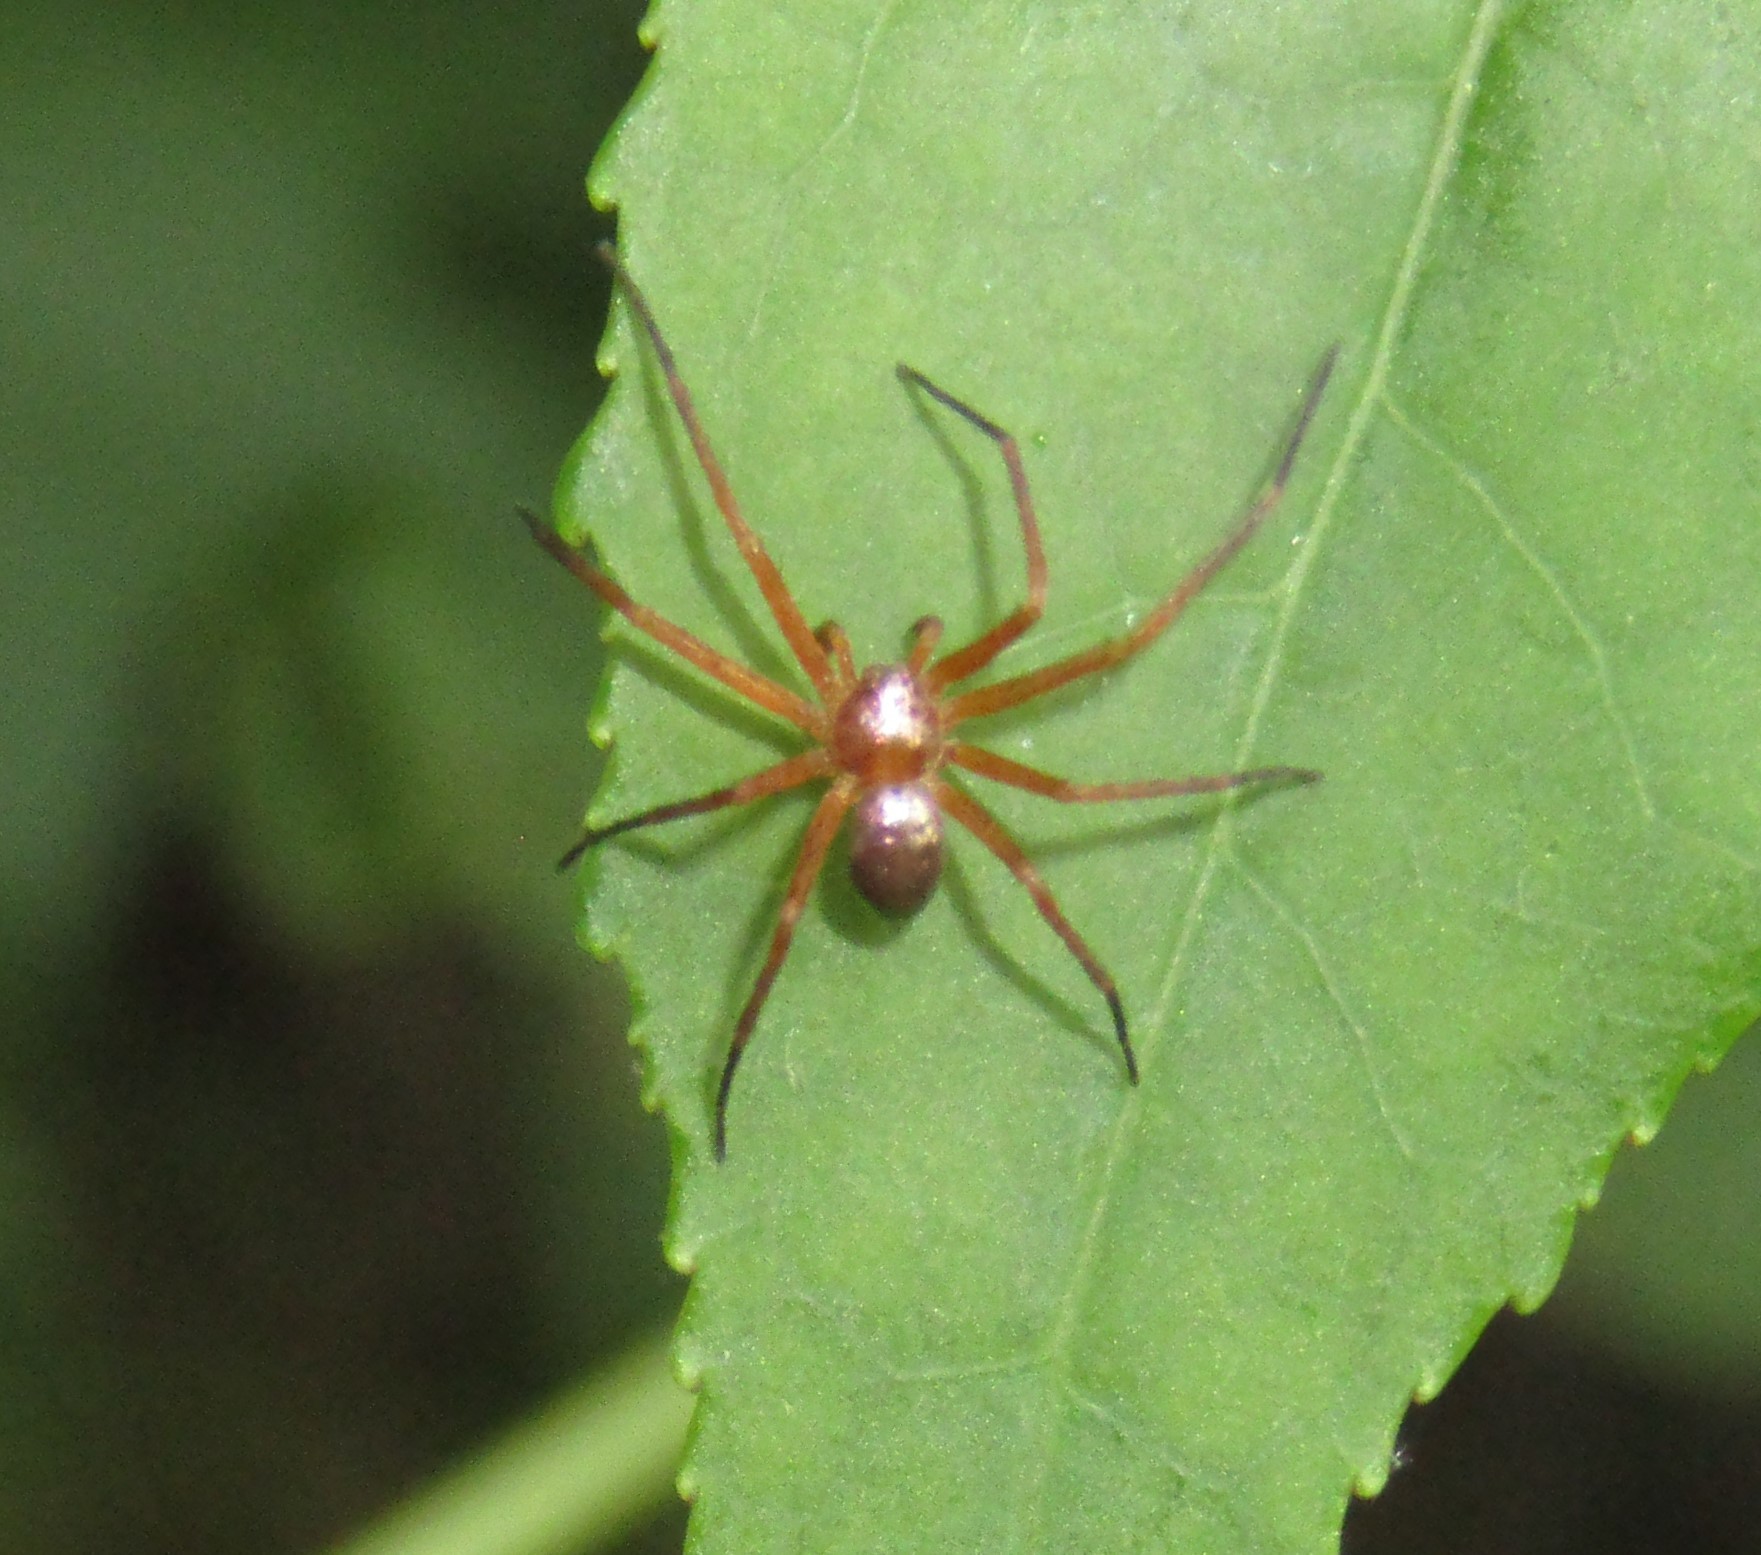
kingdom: Animalia
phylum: Arthropoda
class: Arachnida
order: Araneae
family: Philodromidae
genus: Philodromus
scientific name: Philodromus marxi
